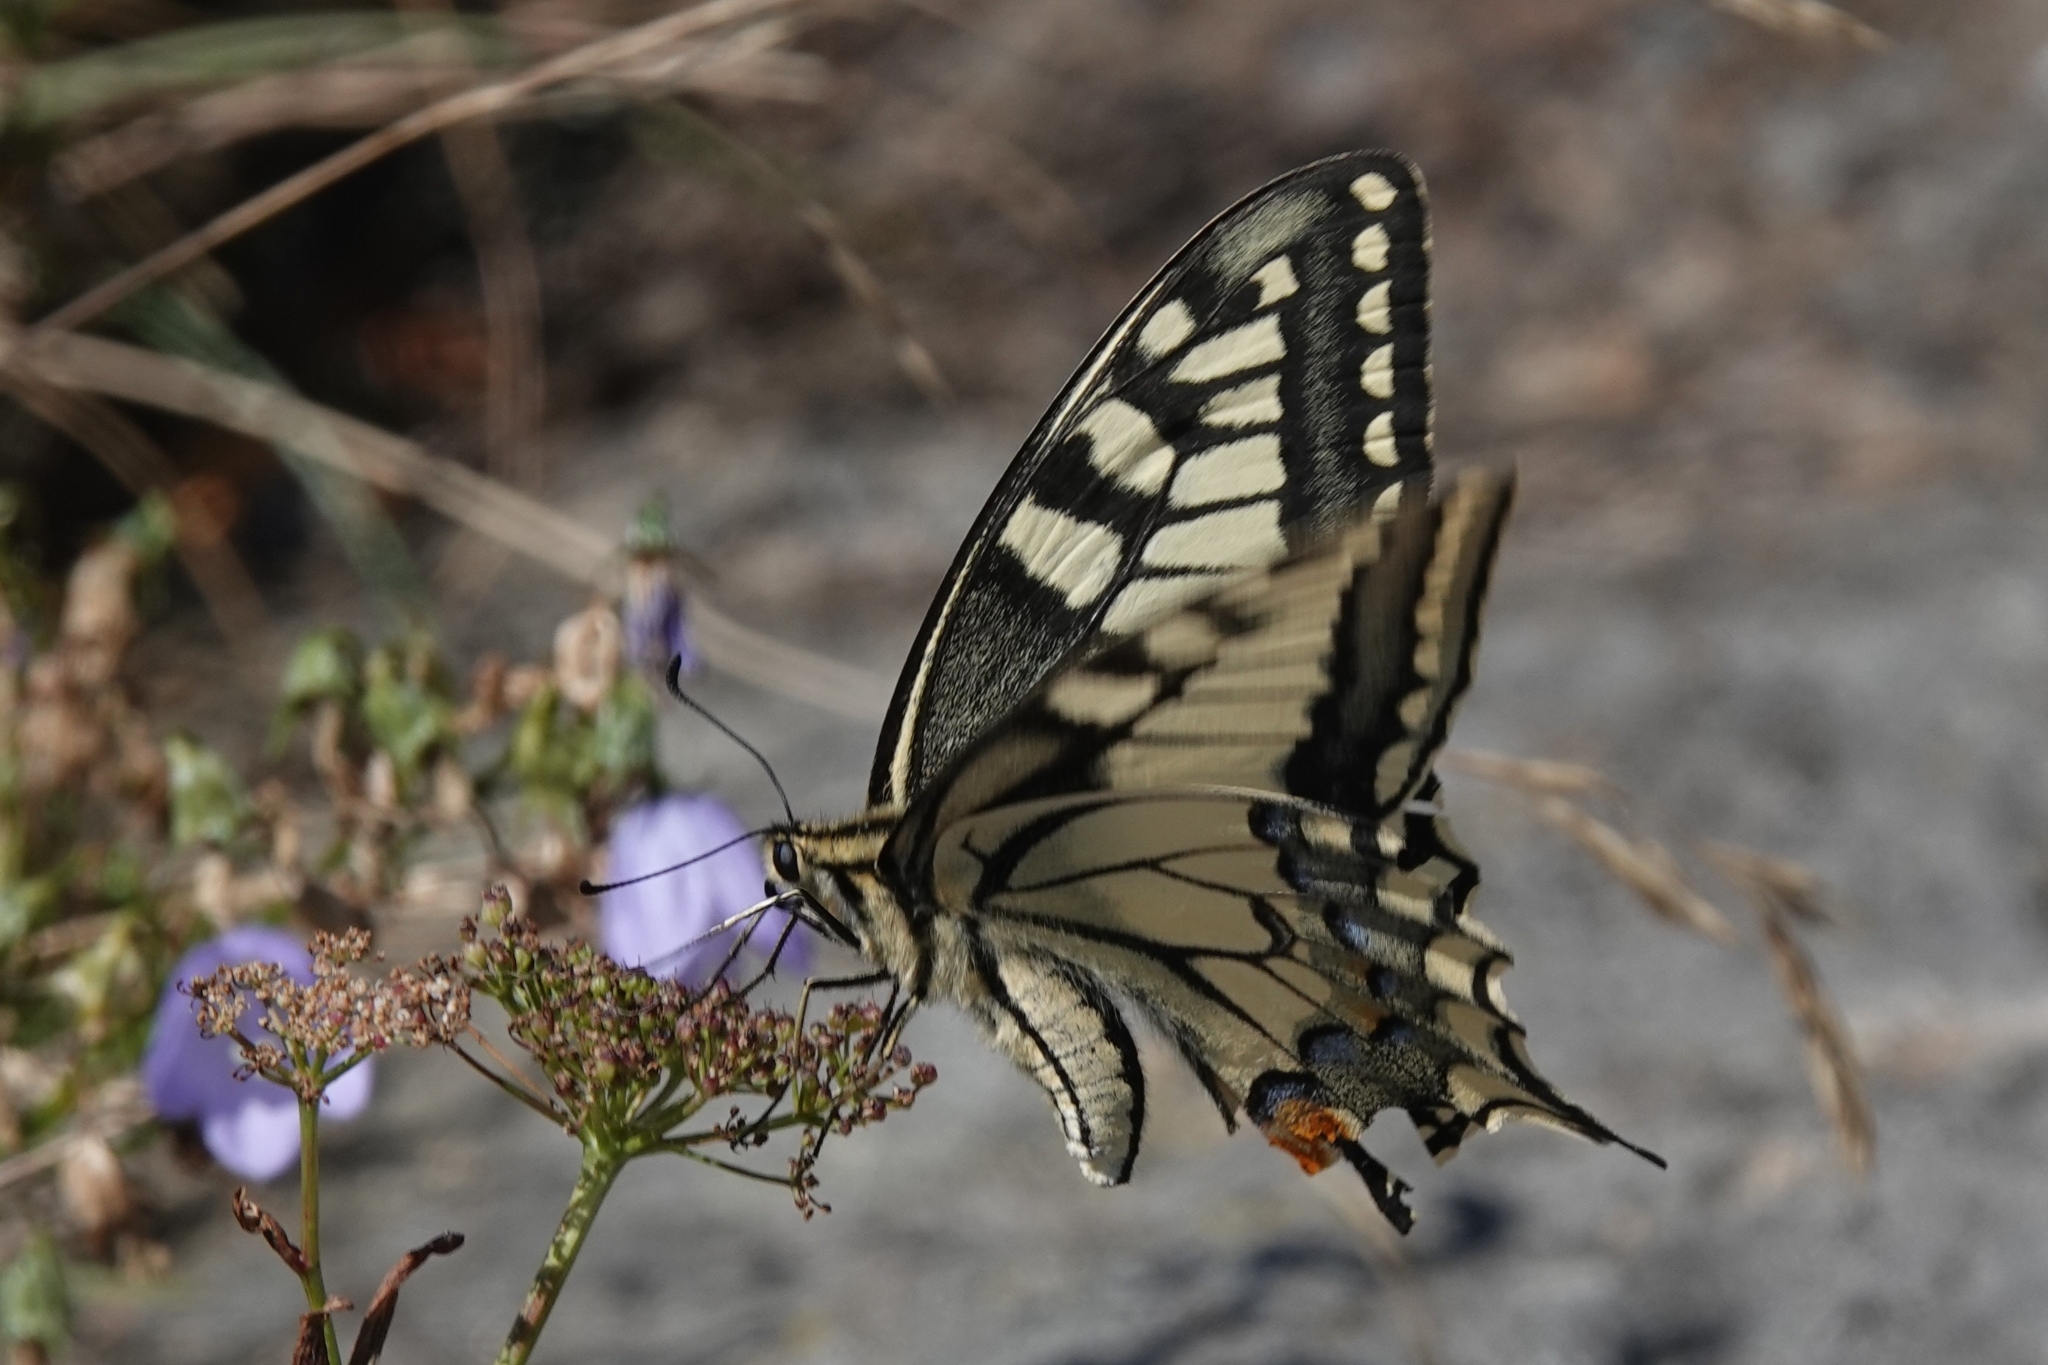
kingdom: Animalia
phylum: Arthropoda
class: Insecta
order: Lepidoptera
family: Papilionidae
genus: Papilio
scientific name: Papilio machaon
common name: Swallowtail
